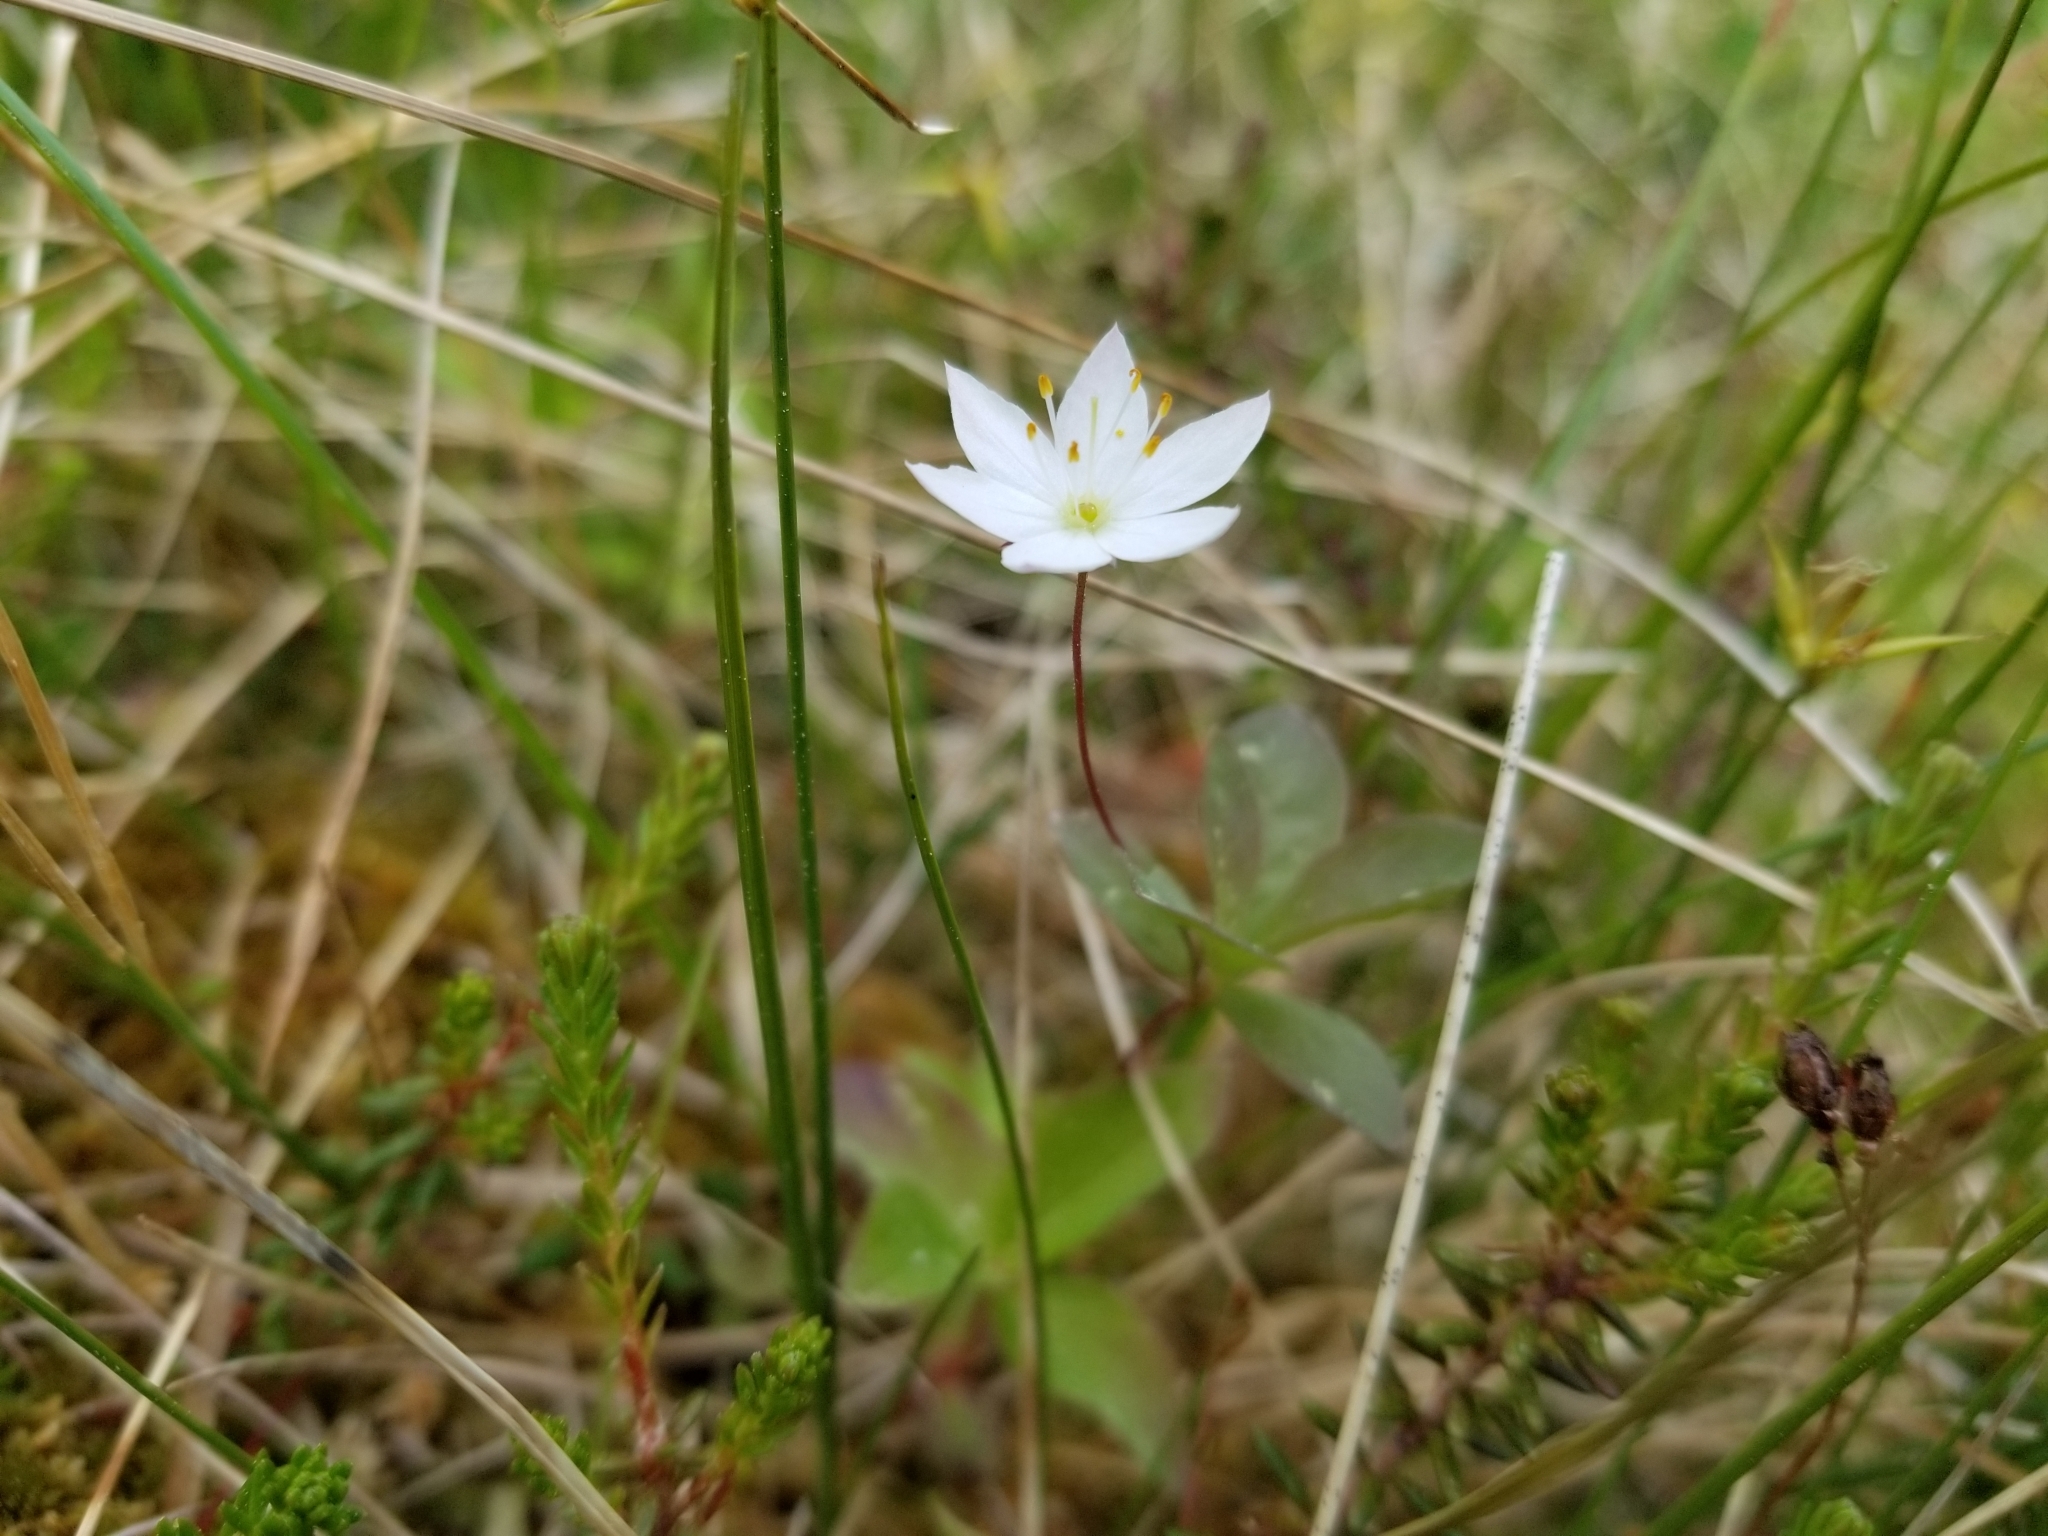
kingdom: Plantae
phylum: Tracheophyta
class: Magnoliopsida
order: Ericales
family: Primulaceae
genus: Lysimachia
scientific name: Lysimachia europaea
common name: Arctic starflower
